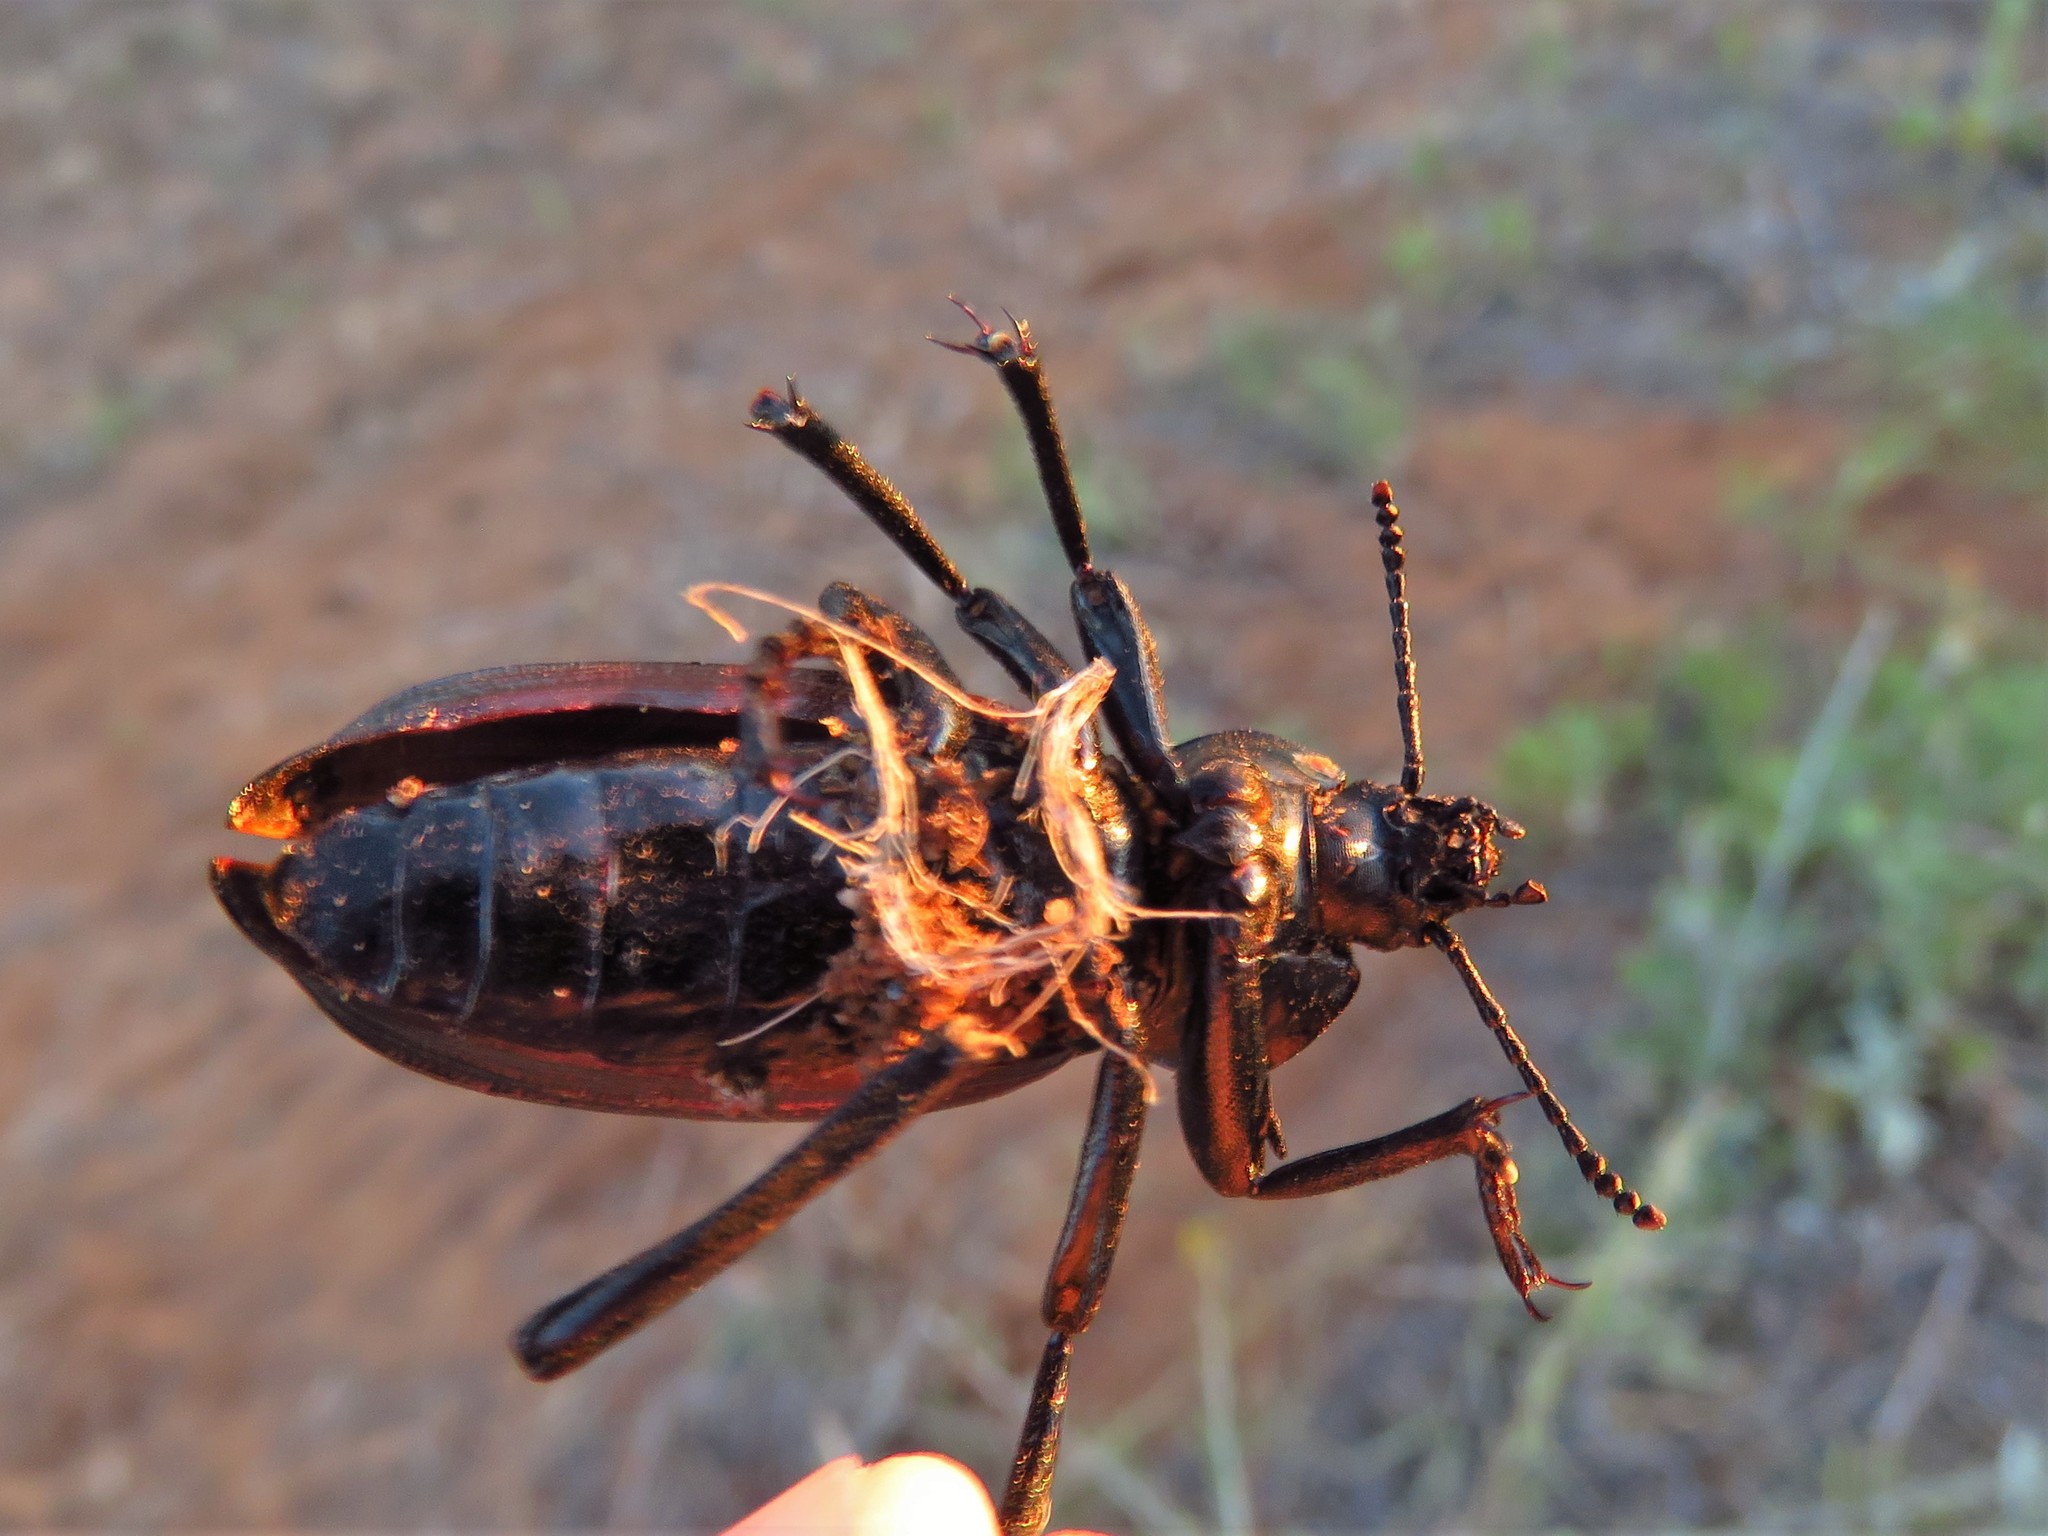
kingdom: Animalia
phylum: Arthropoda
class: Insecta
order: Coleoptera
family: Tenebrionidae
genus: Eleodes
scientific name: Eleodes acuta
